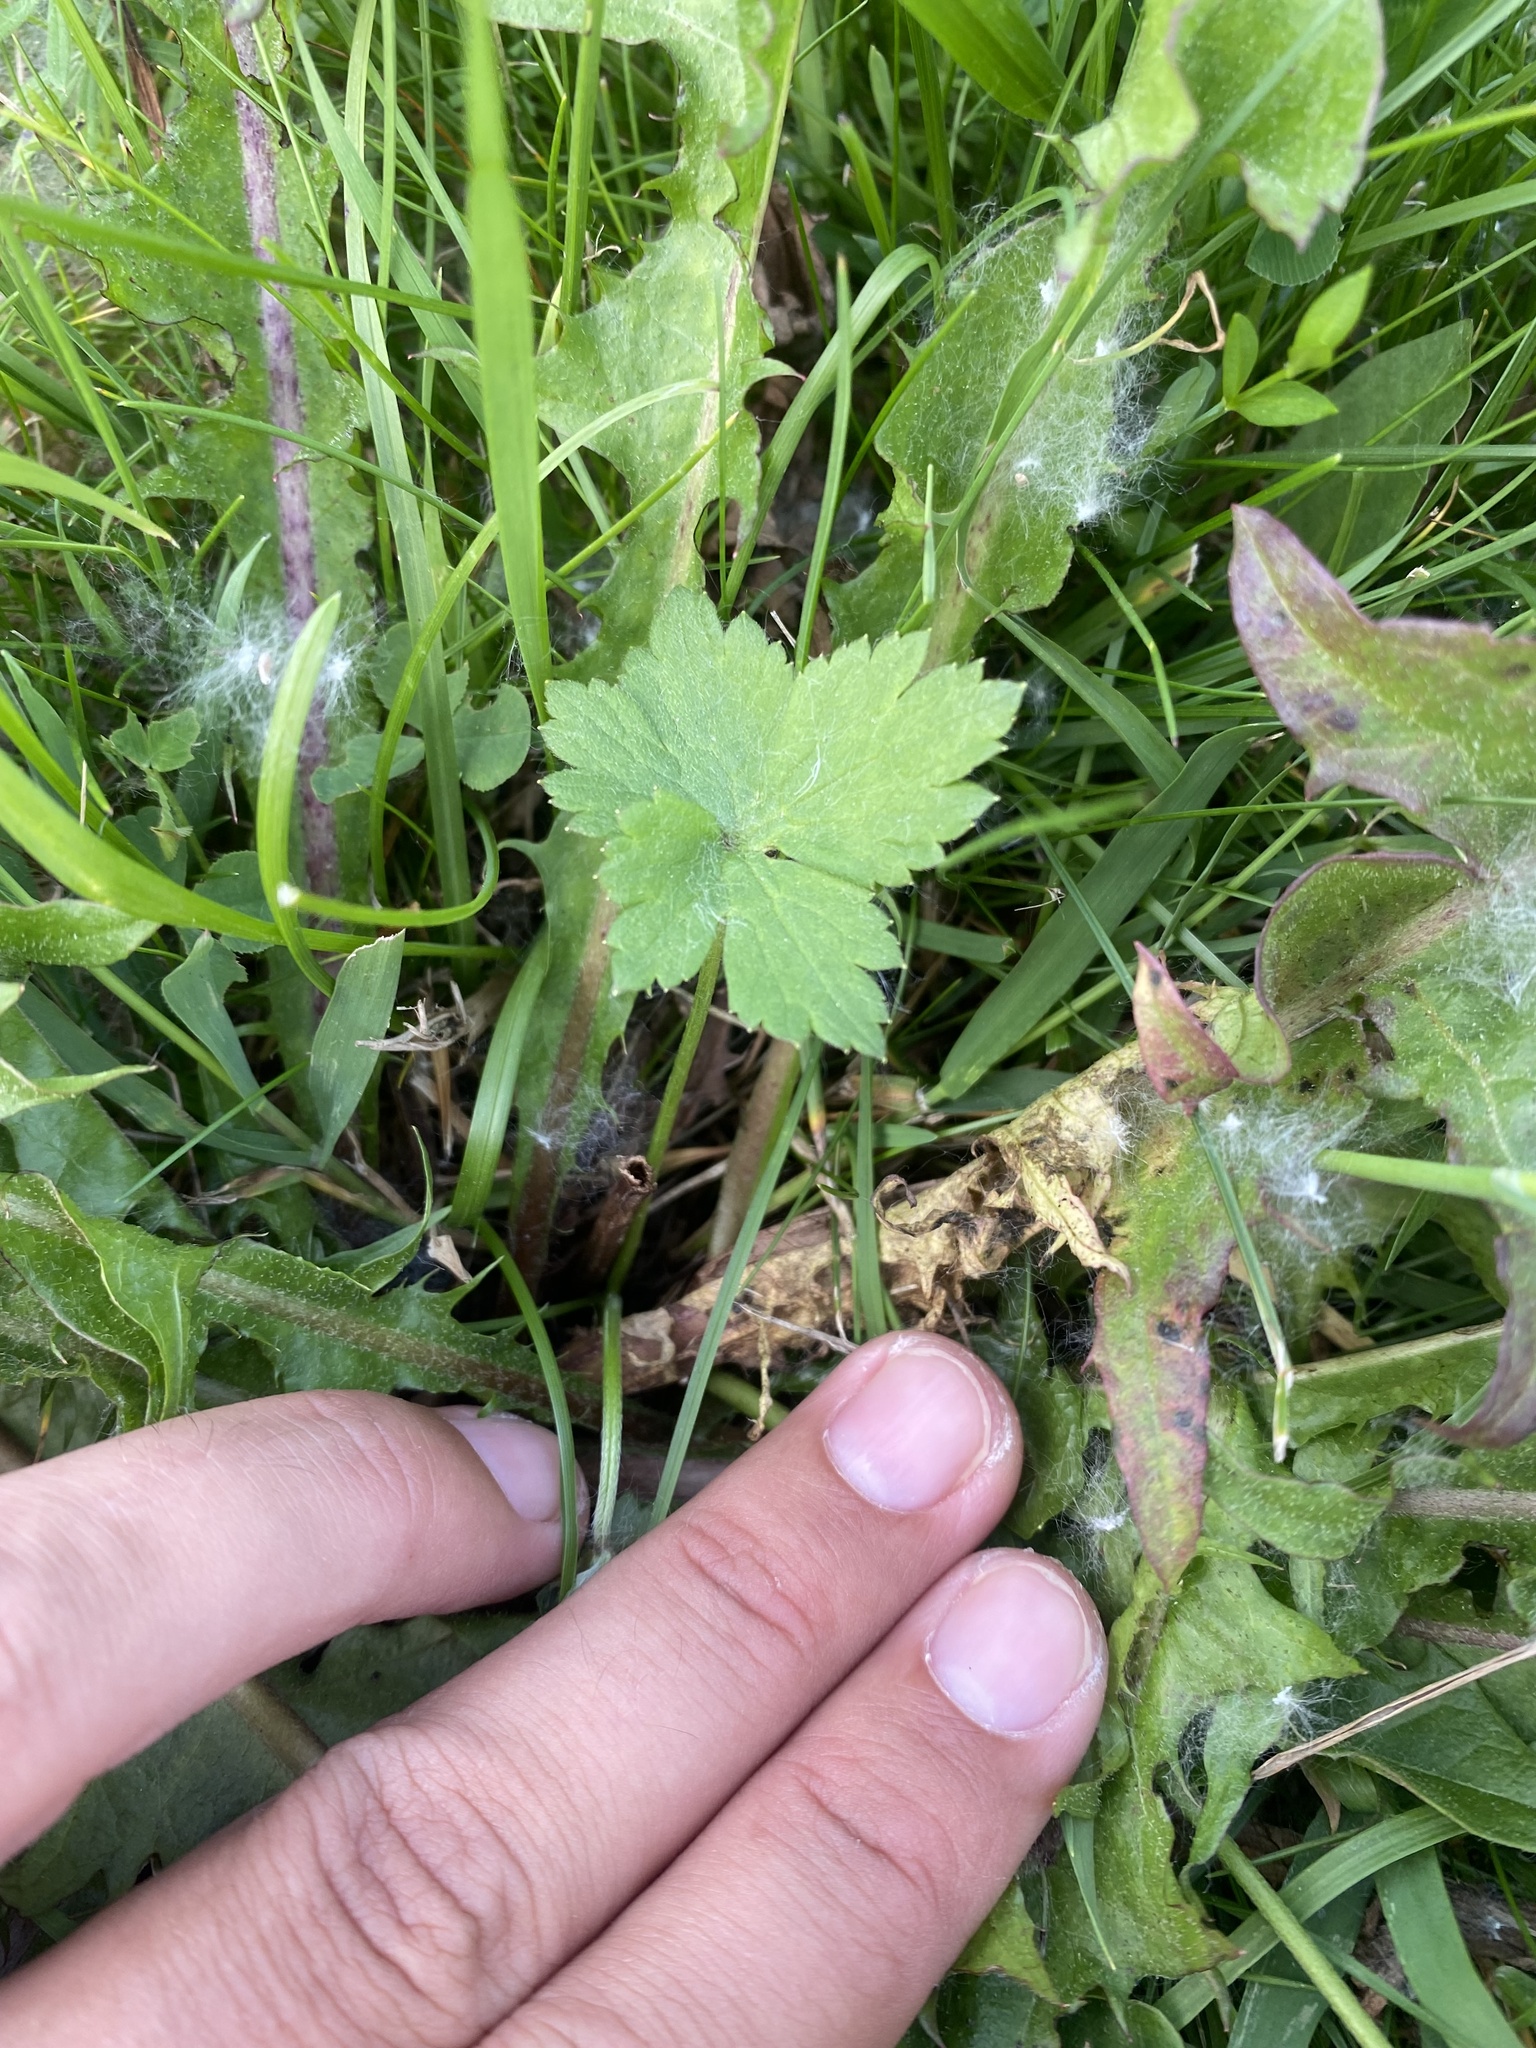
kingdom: Plantae
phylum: Tracheophyta
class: Magnoliopsida
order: Ranunculales
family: Ranunculaceae
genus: Ranunculus
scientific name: Ranunculus propinquus
